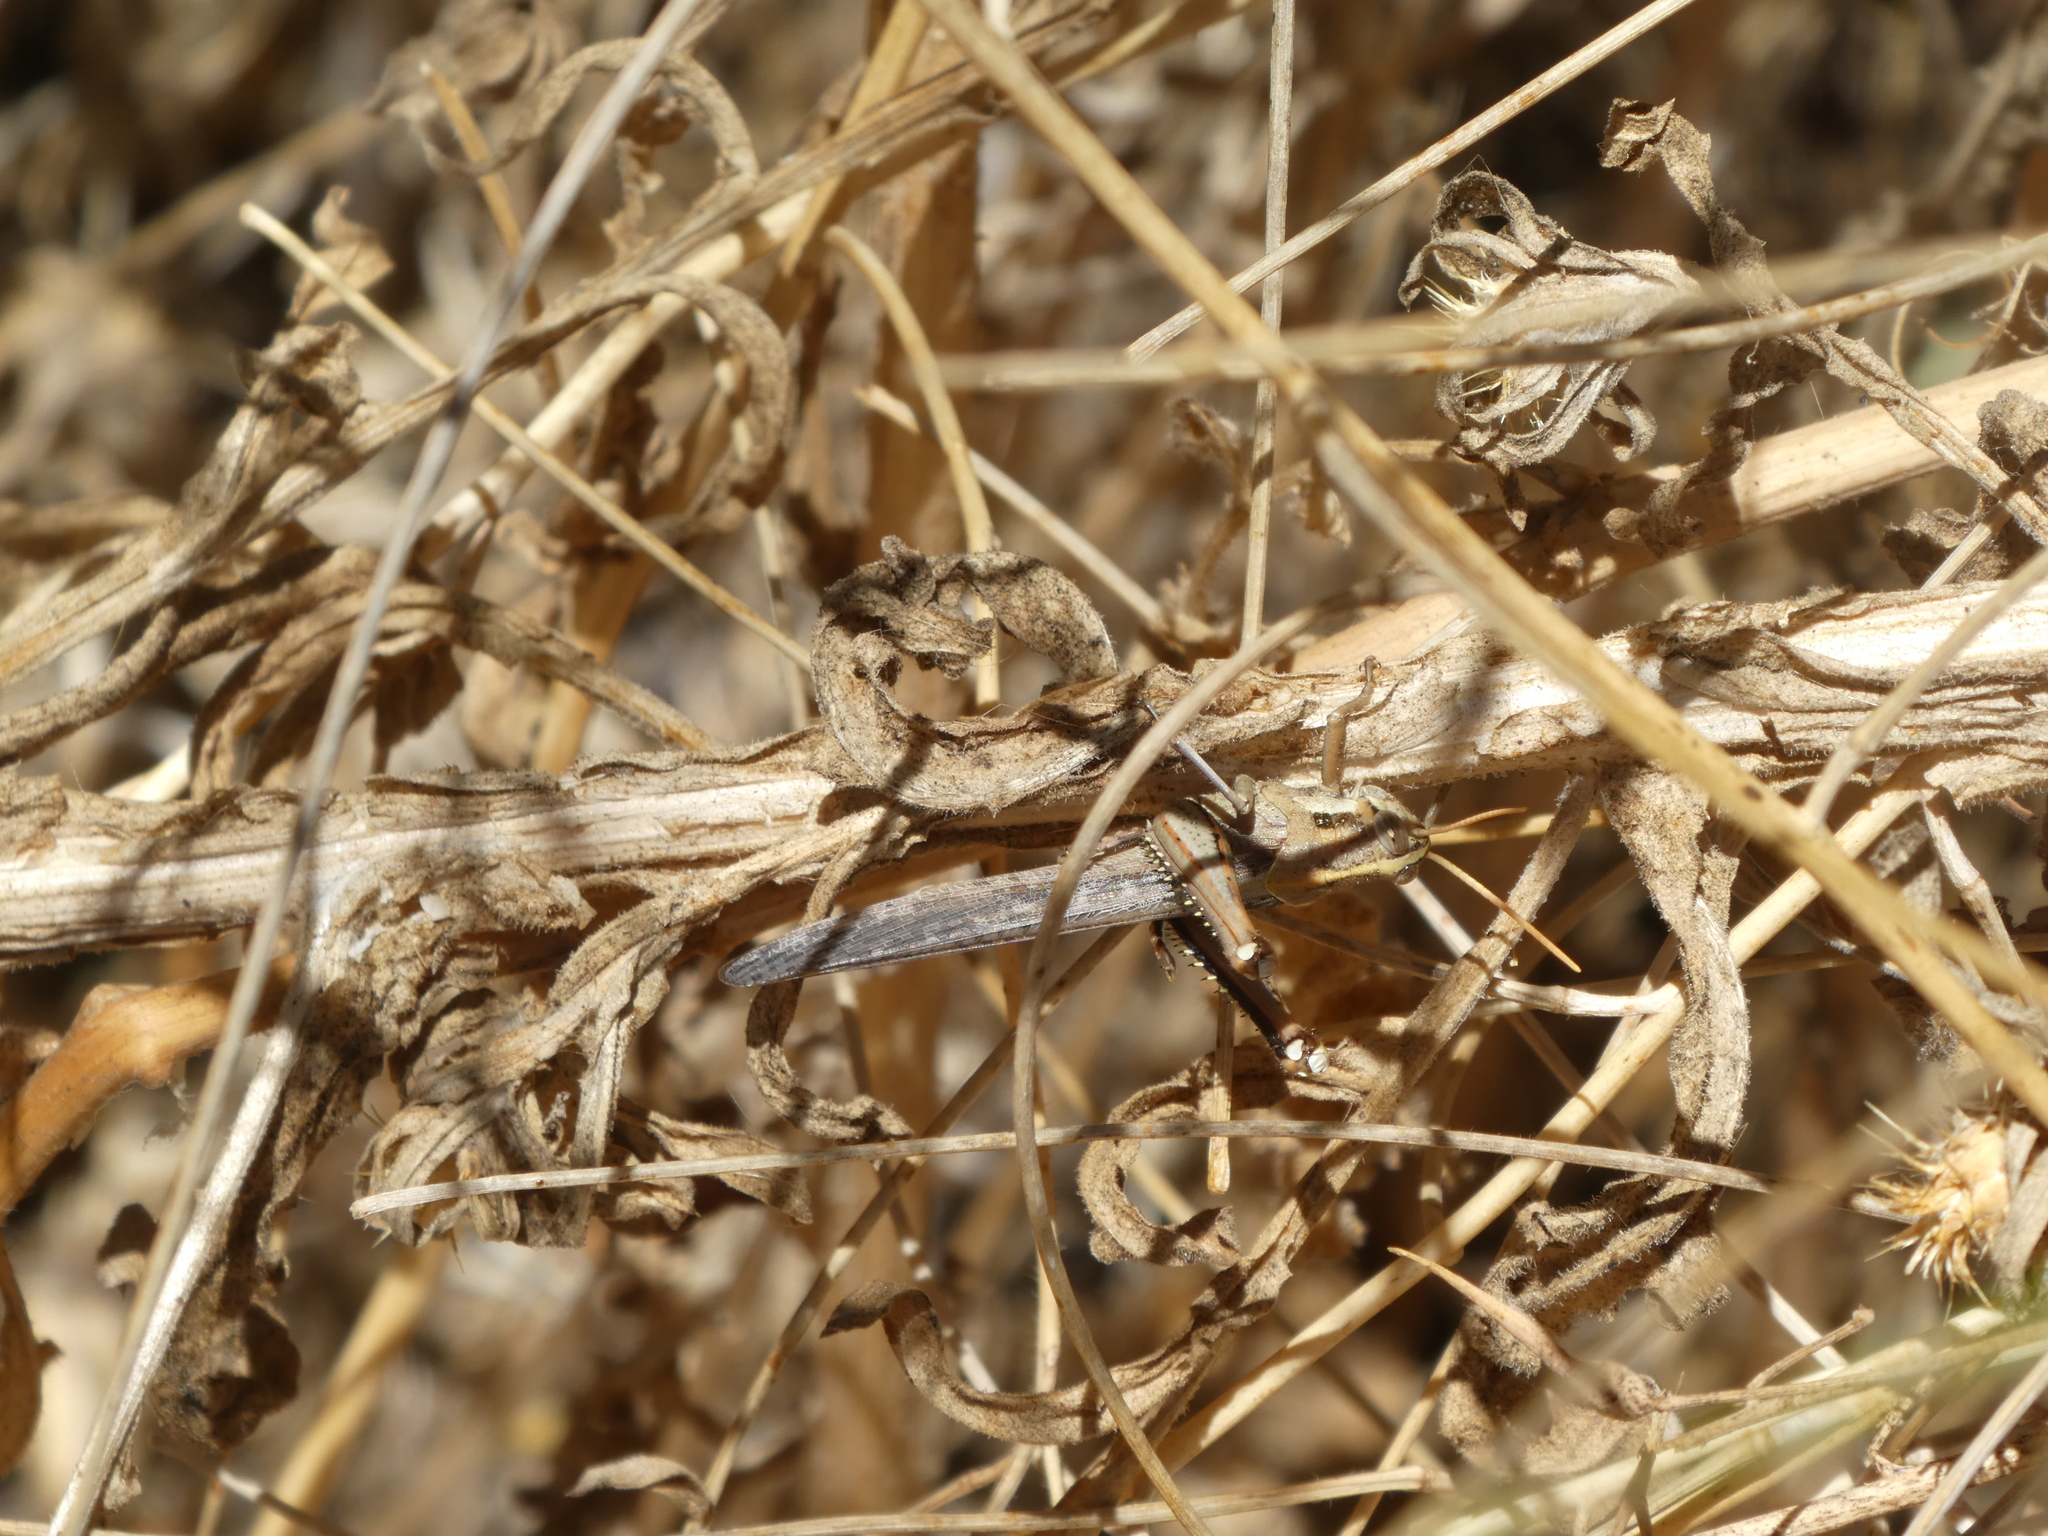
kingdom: Animalia
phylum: Arthropoda
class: Insecta
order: Orthoptera
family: Acrididae
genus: Schistocerca
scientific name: Schistocerca nitens
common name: Vagrant grasshopper
